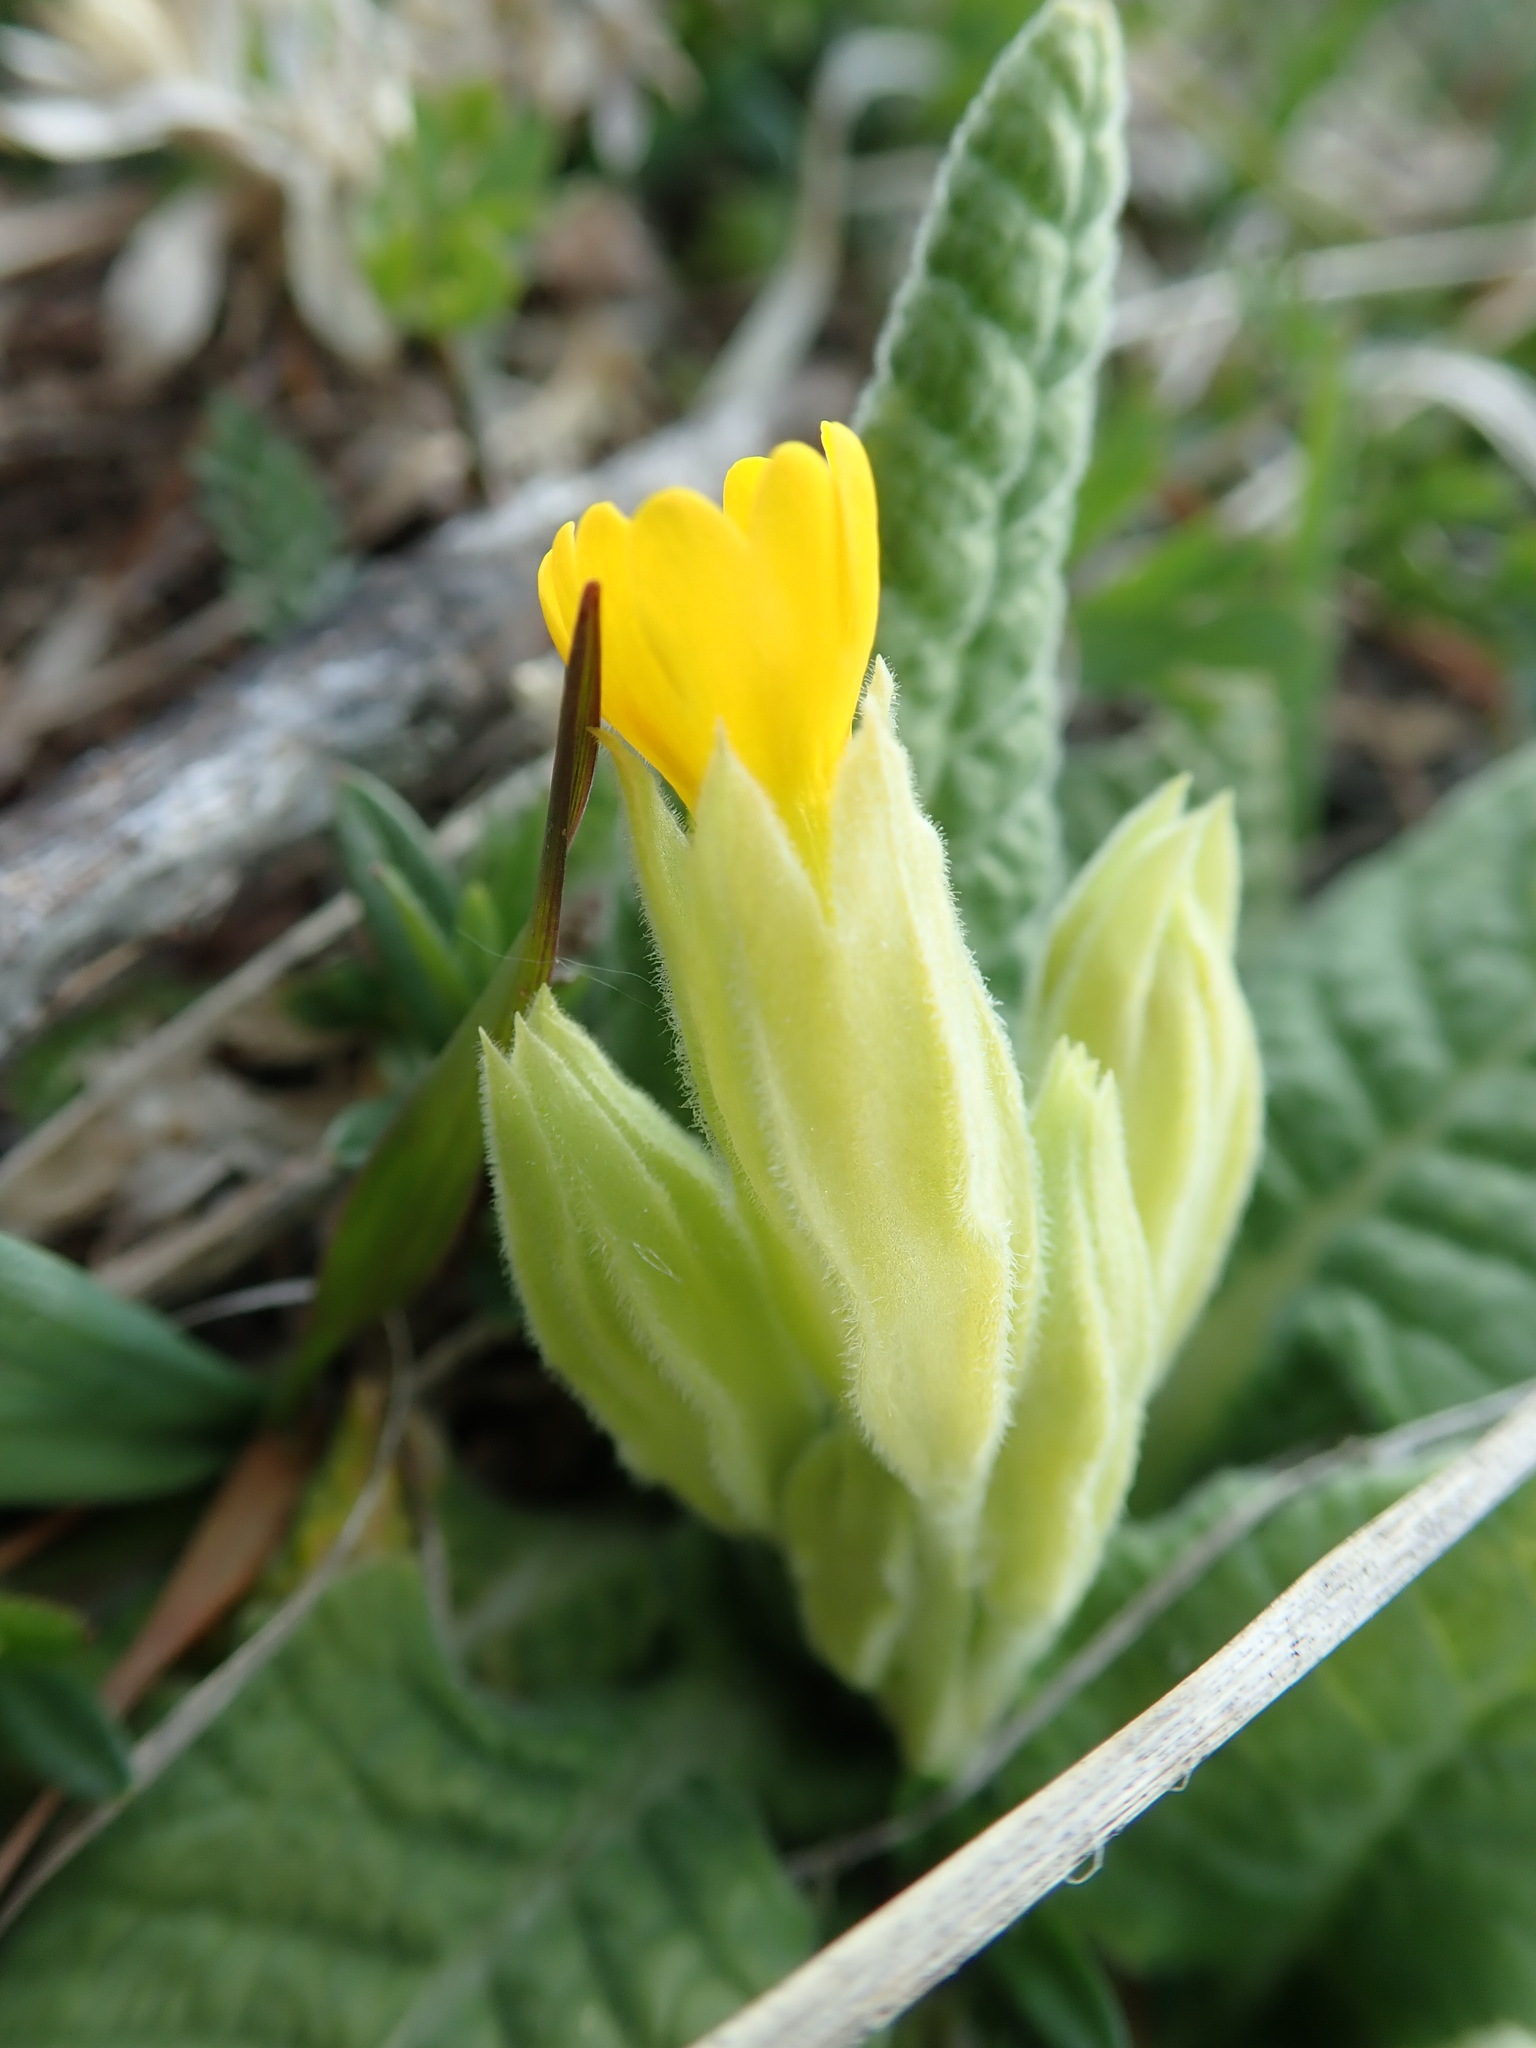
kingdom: Plantae
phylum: Tracheophyta
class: Magnoliopsida
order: Ericales
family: Primulaceae
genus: Primula
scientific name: Primula veris
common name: Cowslip
